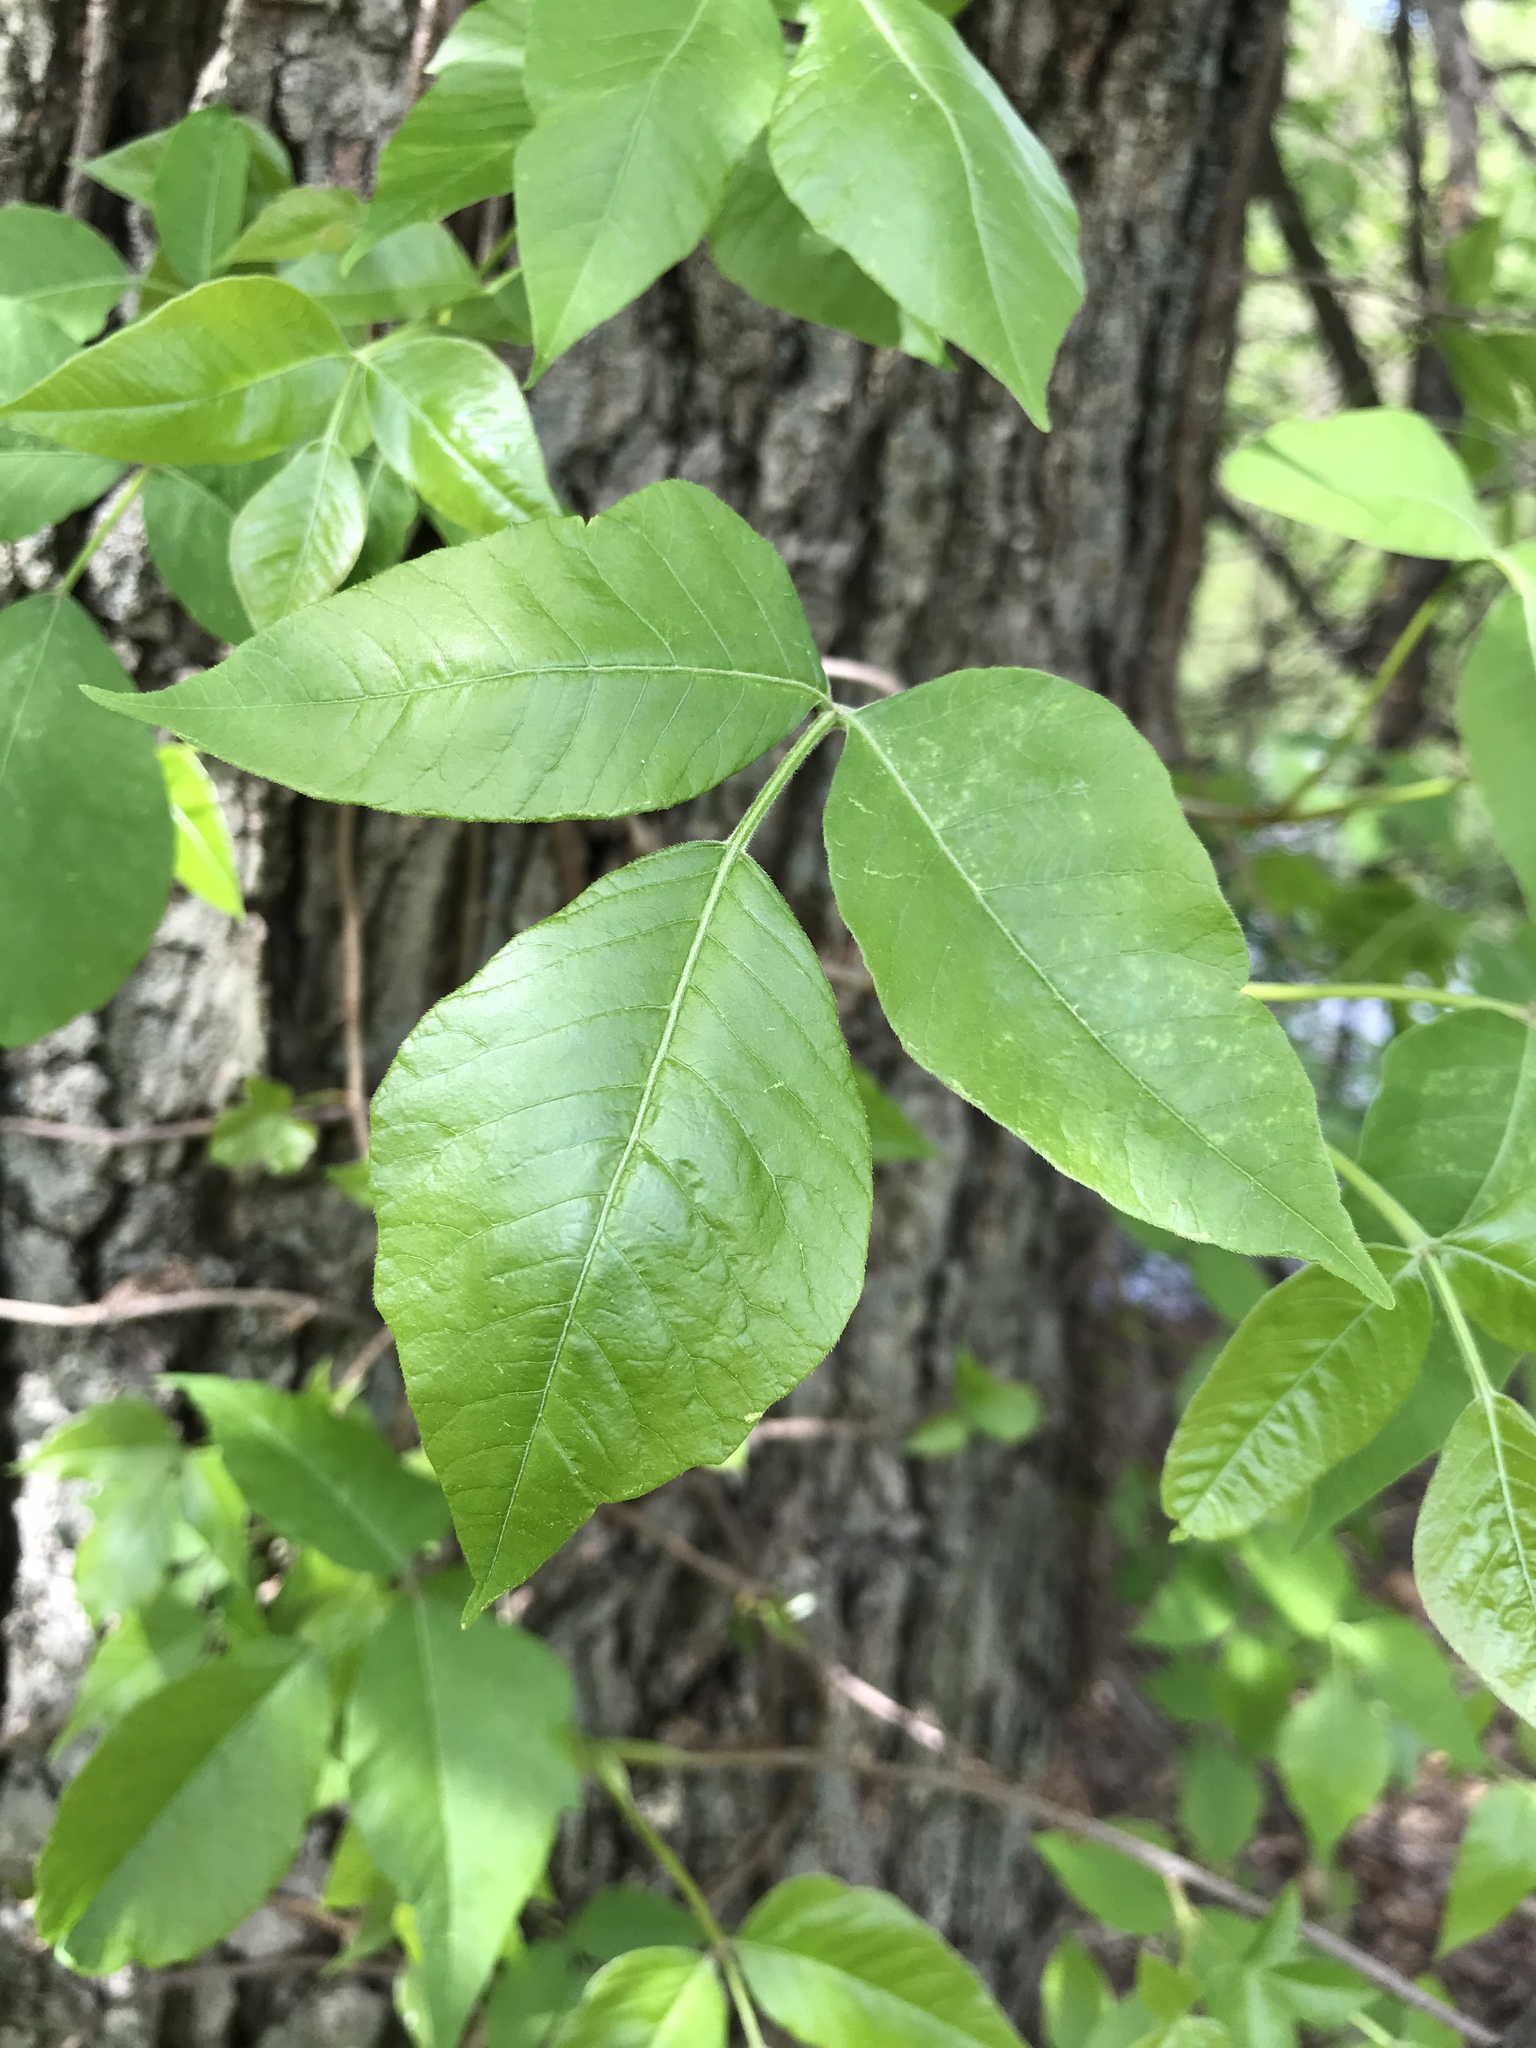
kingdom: Plantae
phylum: Tracheophyta
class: Magnoliopsida
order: Sapindales
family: Anacardiaceae
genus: Toxicodendron
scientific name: Toxicodendron radicans
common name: Poison ivy
